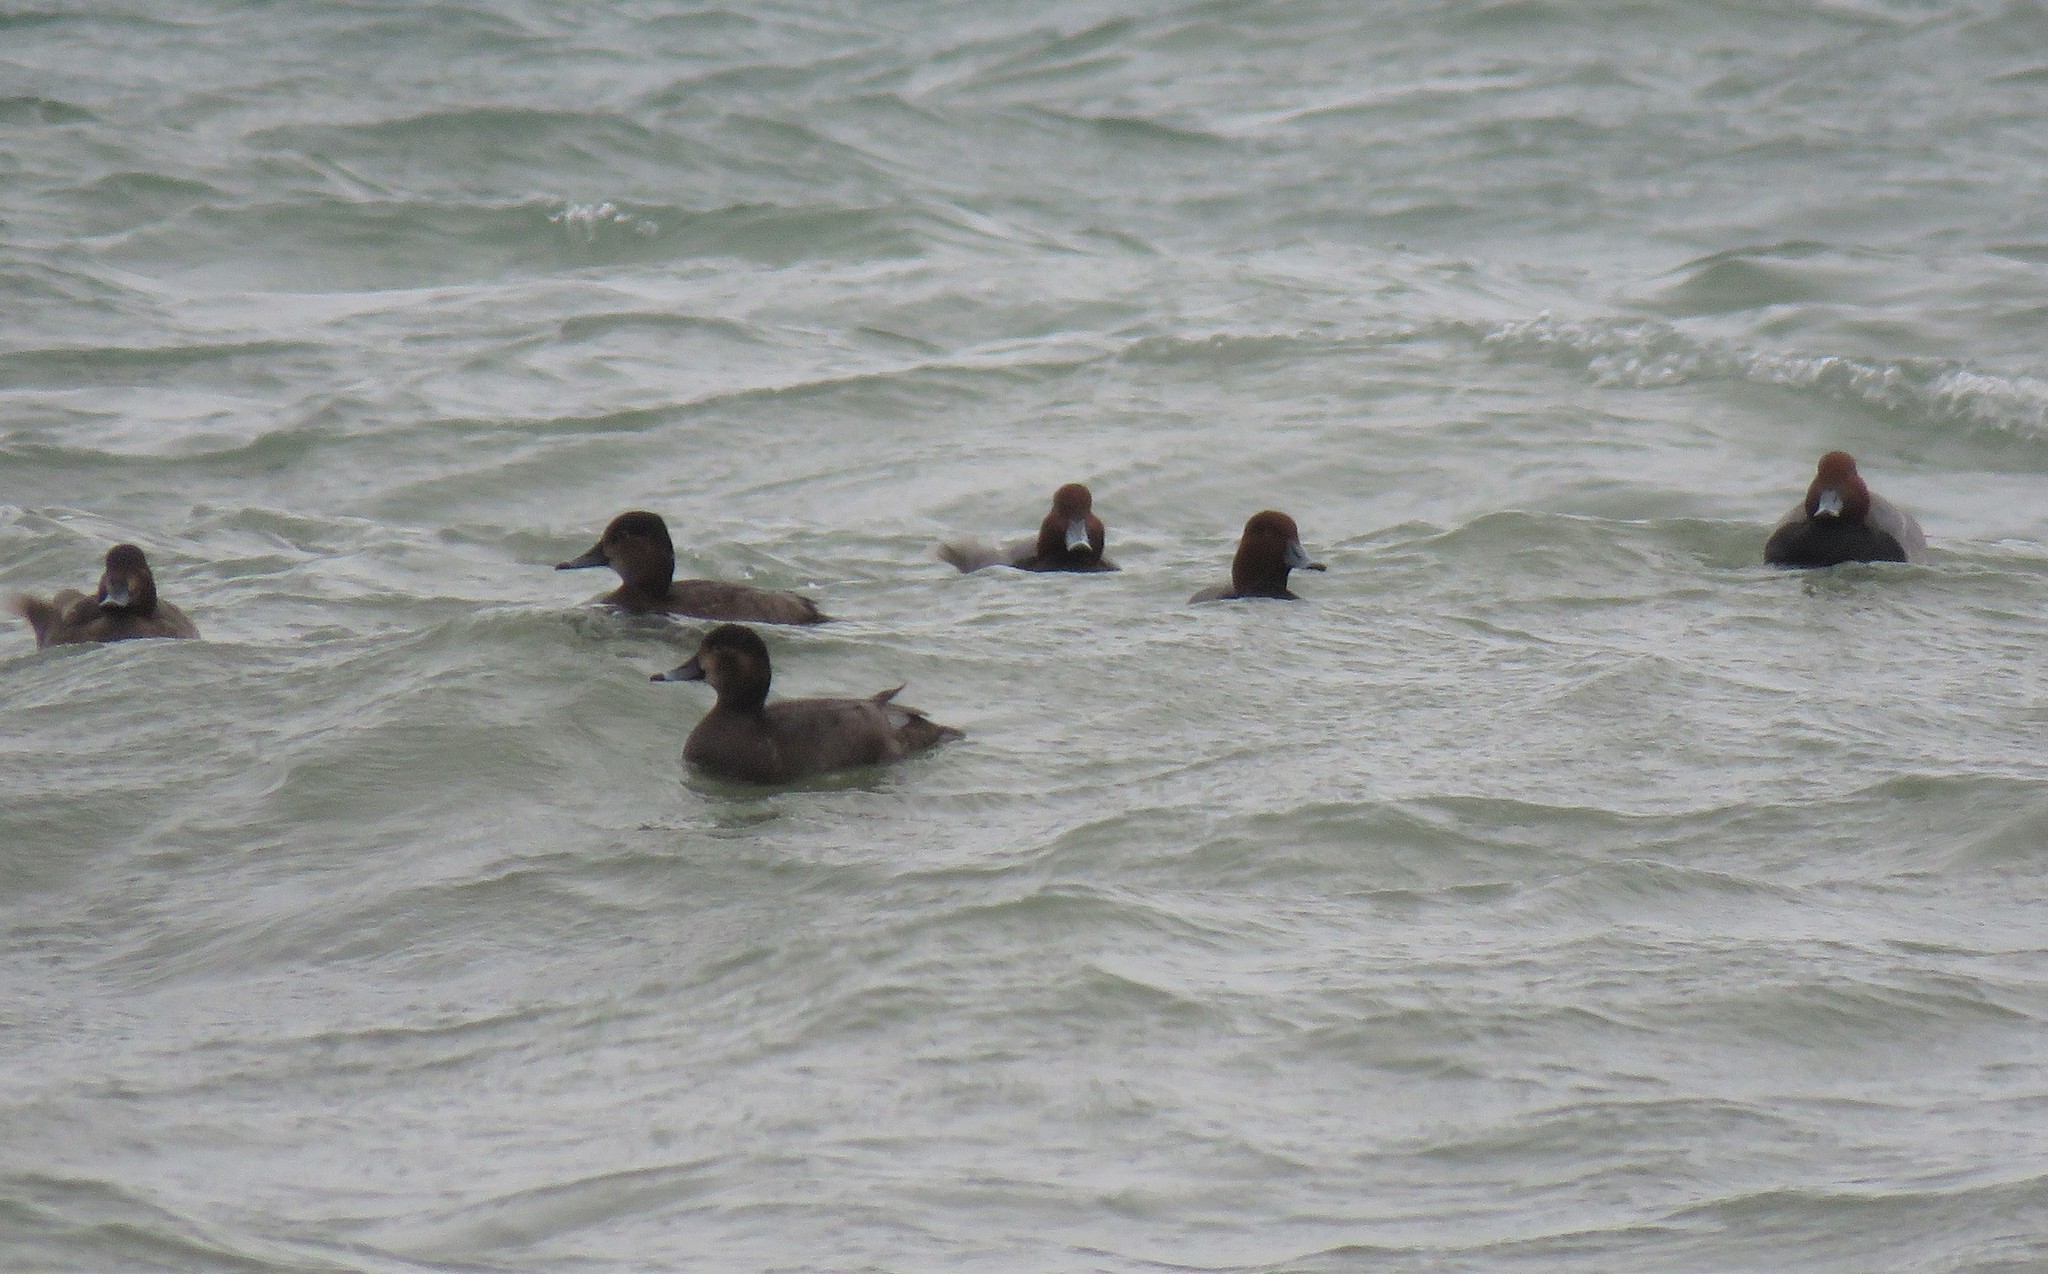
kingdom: Animalia
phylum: Chordata
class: Aves
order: Anseriformes
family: Anatidae
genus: Aythya
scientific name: Aythya americana
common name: Redhead
